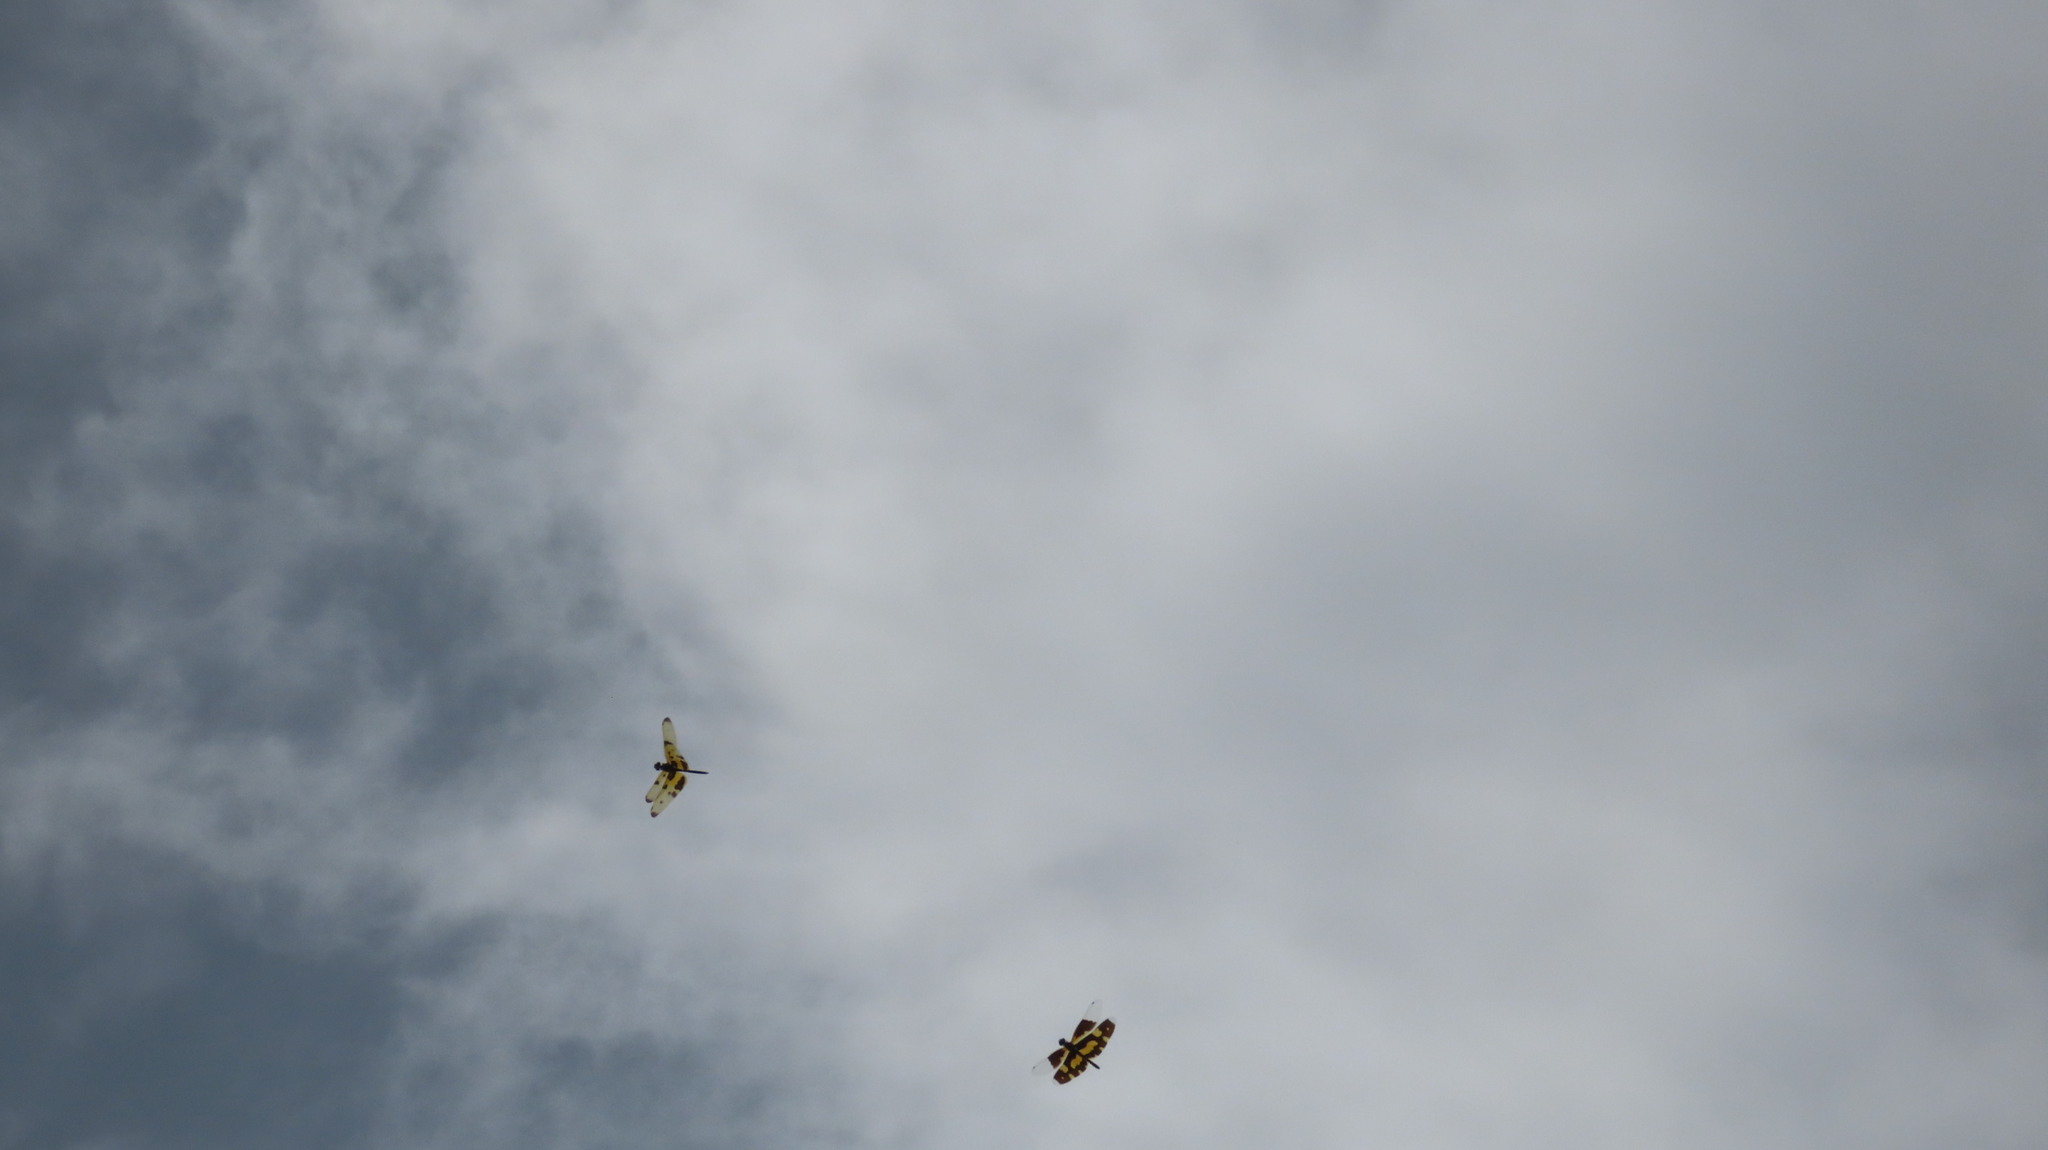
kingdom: Animalia
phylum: Arthropoda
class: Insecta
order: Odonata
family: Libellulidae
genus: Rhyothemis
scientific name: Rhyothemis variegata
